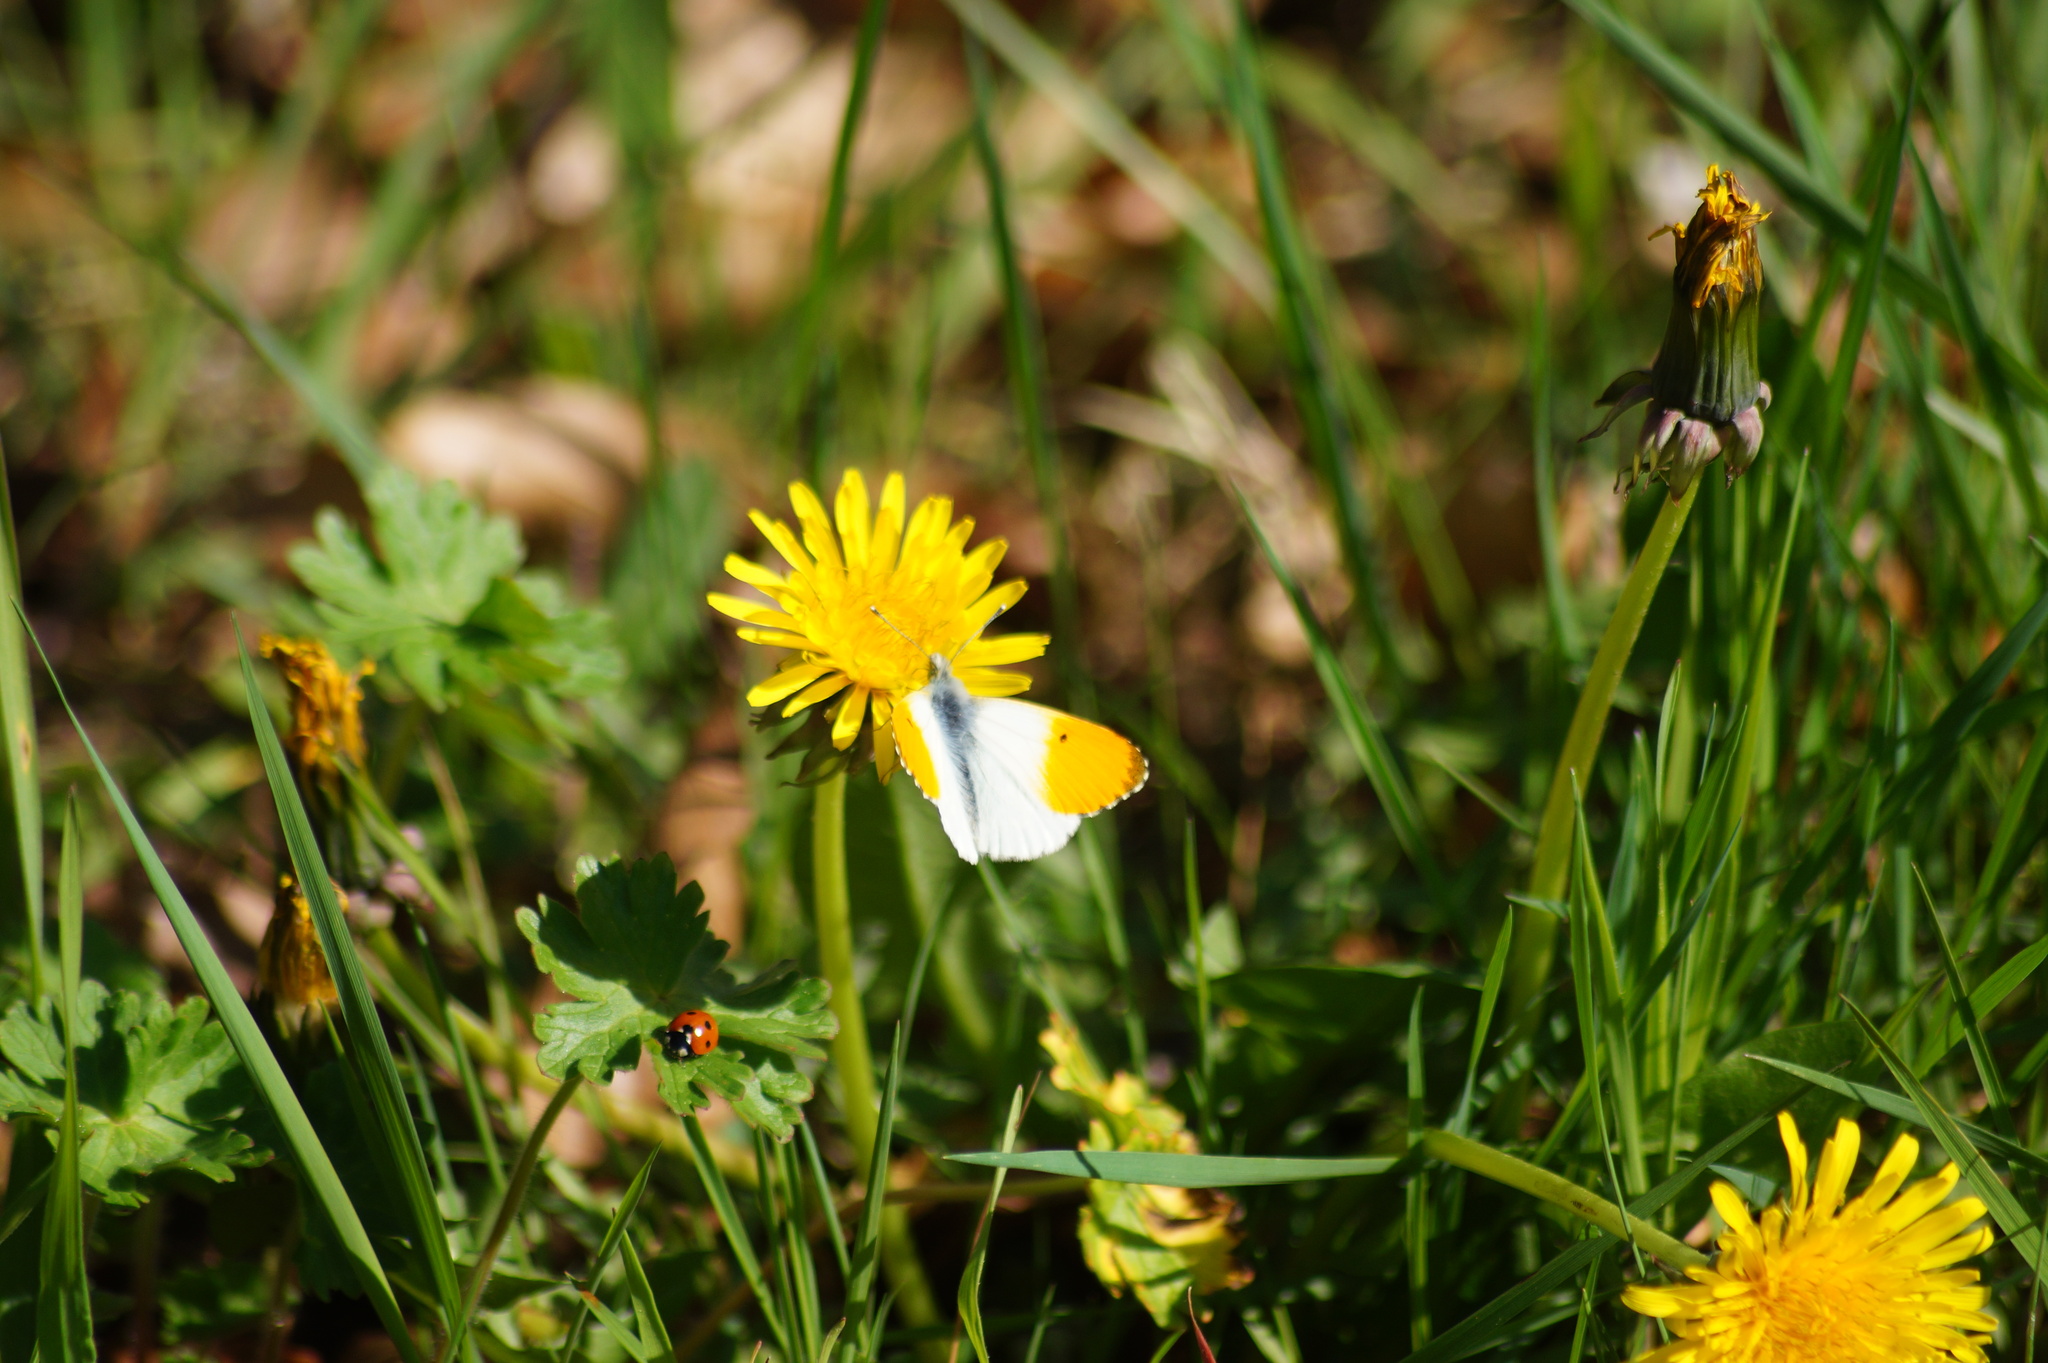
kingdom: Animalia
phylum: Arthropoda
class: Insecta
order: Lepidoptera
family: Pieridae
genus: Anthocharis
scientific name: Anthocharis cardamines
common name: Orange-tip
